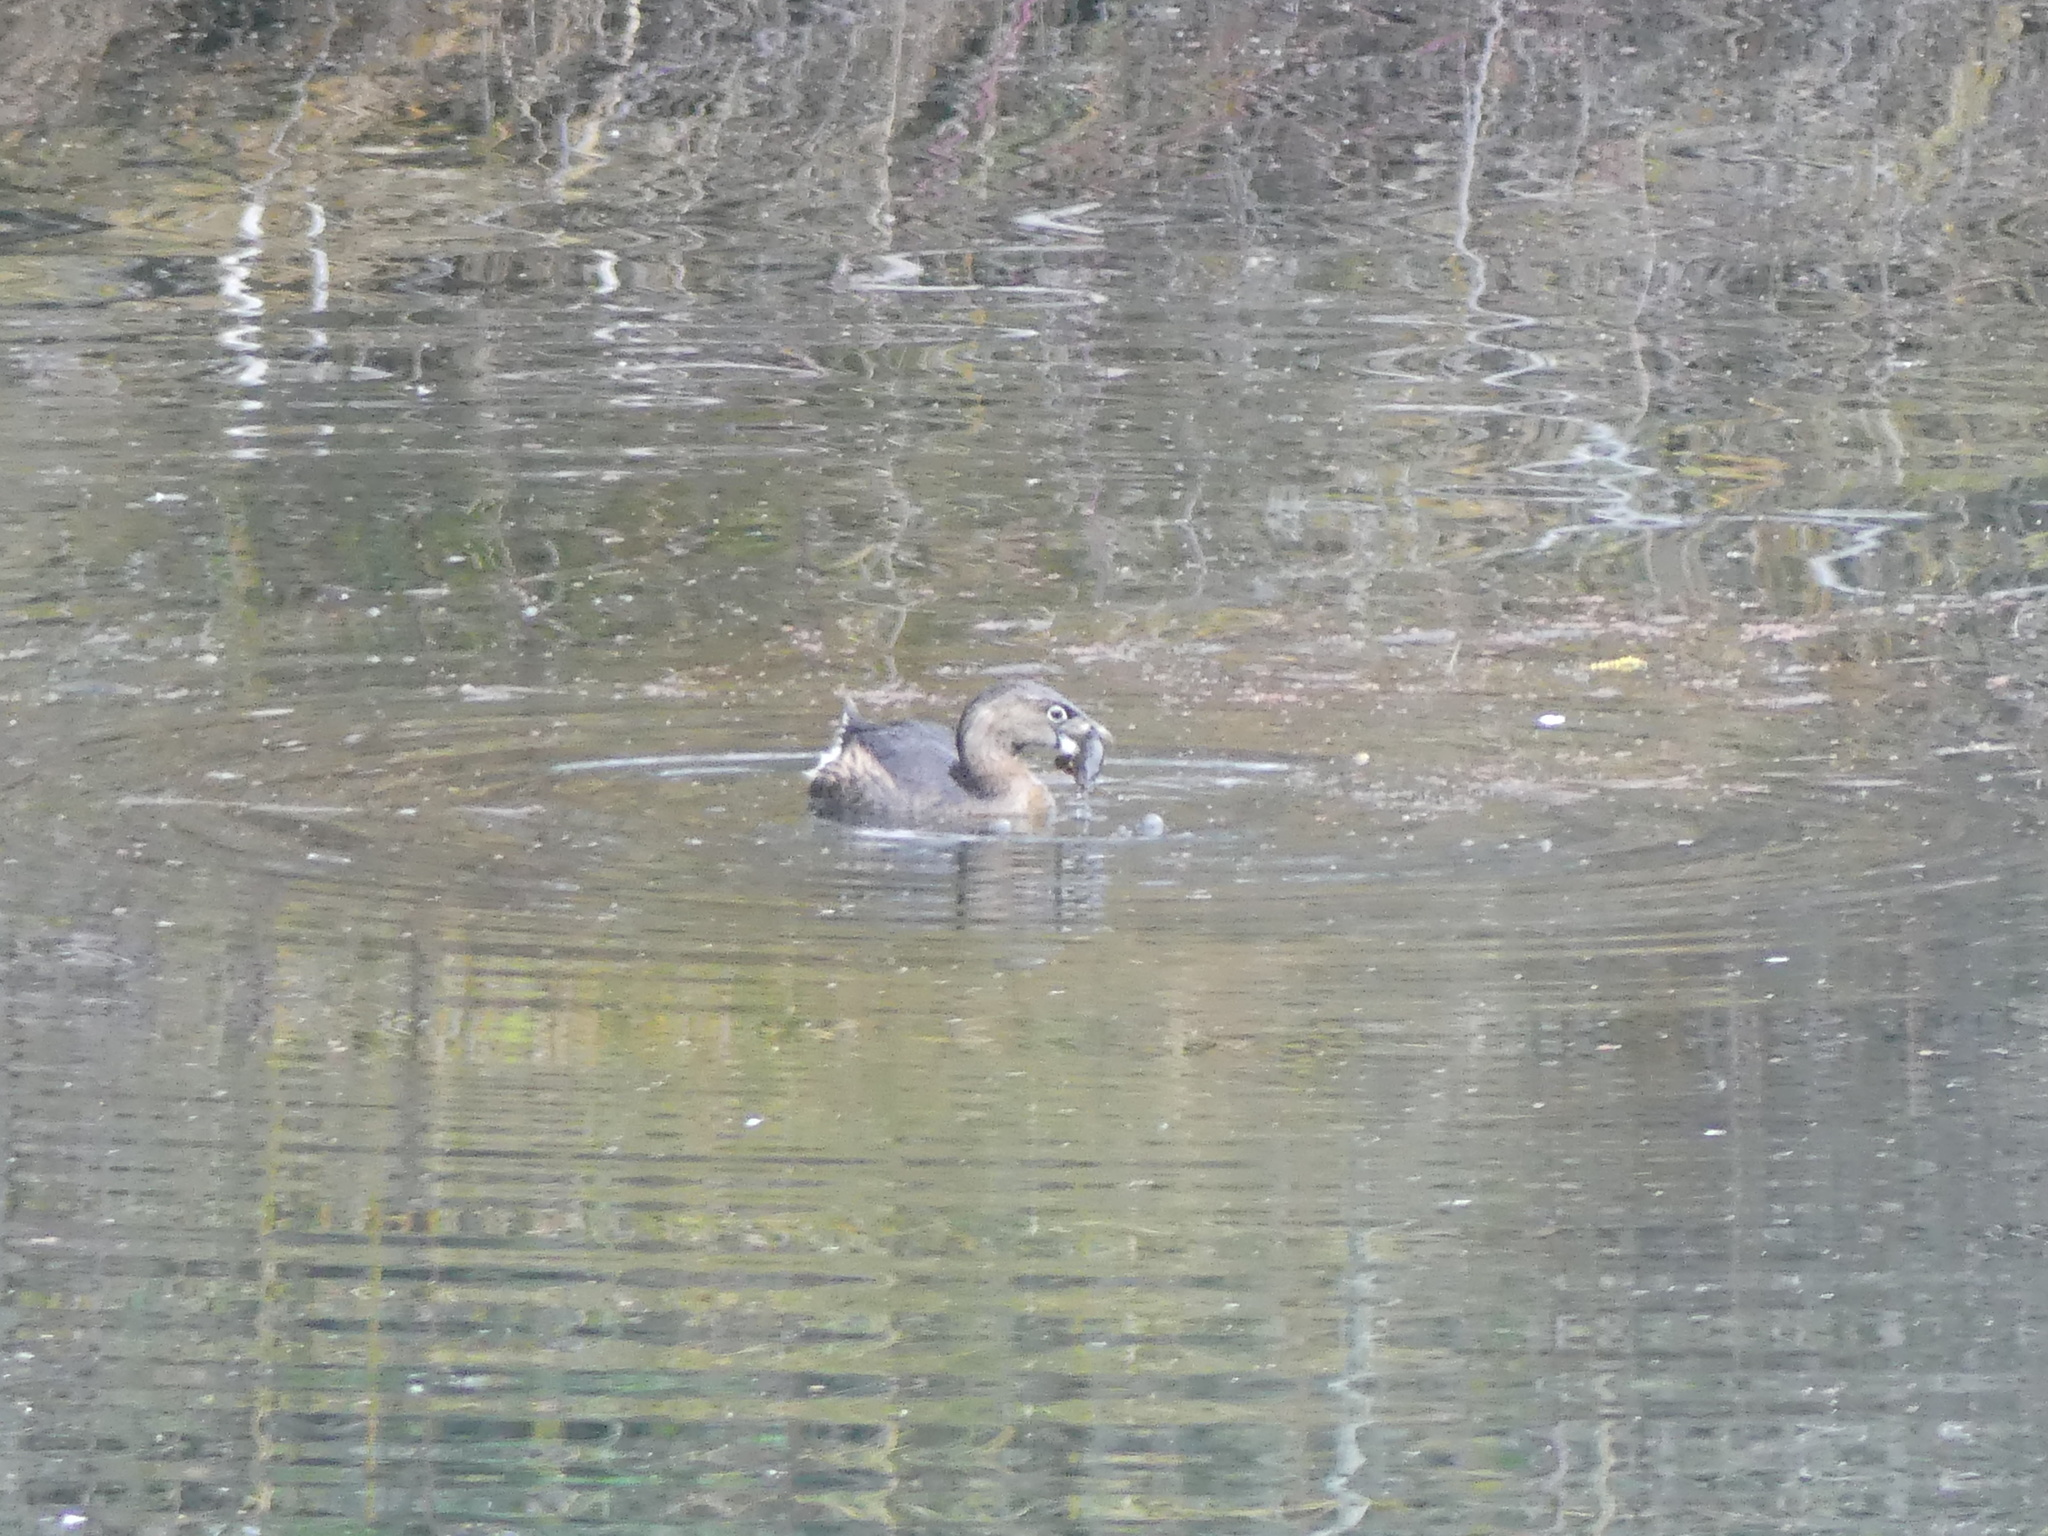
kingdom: Animalia
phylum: Chordata
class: Aves
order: Podicipediformes
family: Podicipedidae
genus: Podilymbus
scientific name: Podilymbus podiceps
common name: Pied-billed grebe
